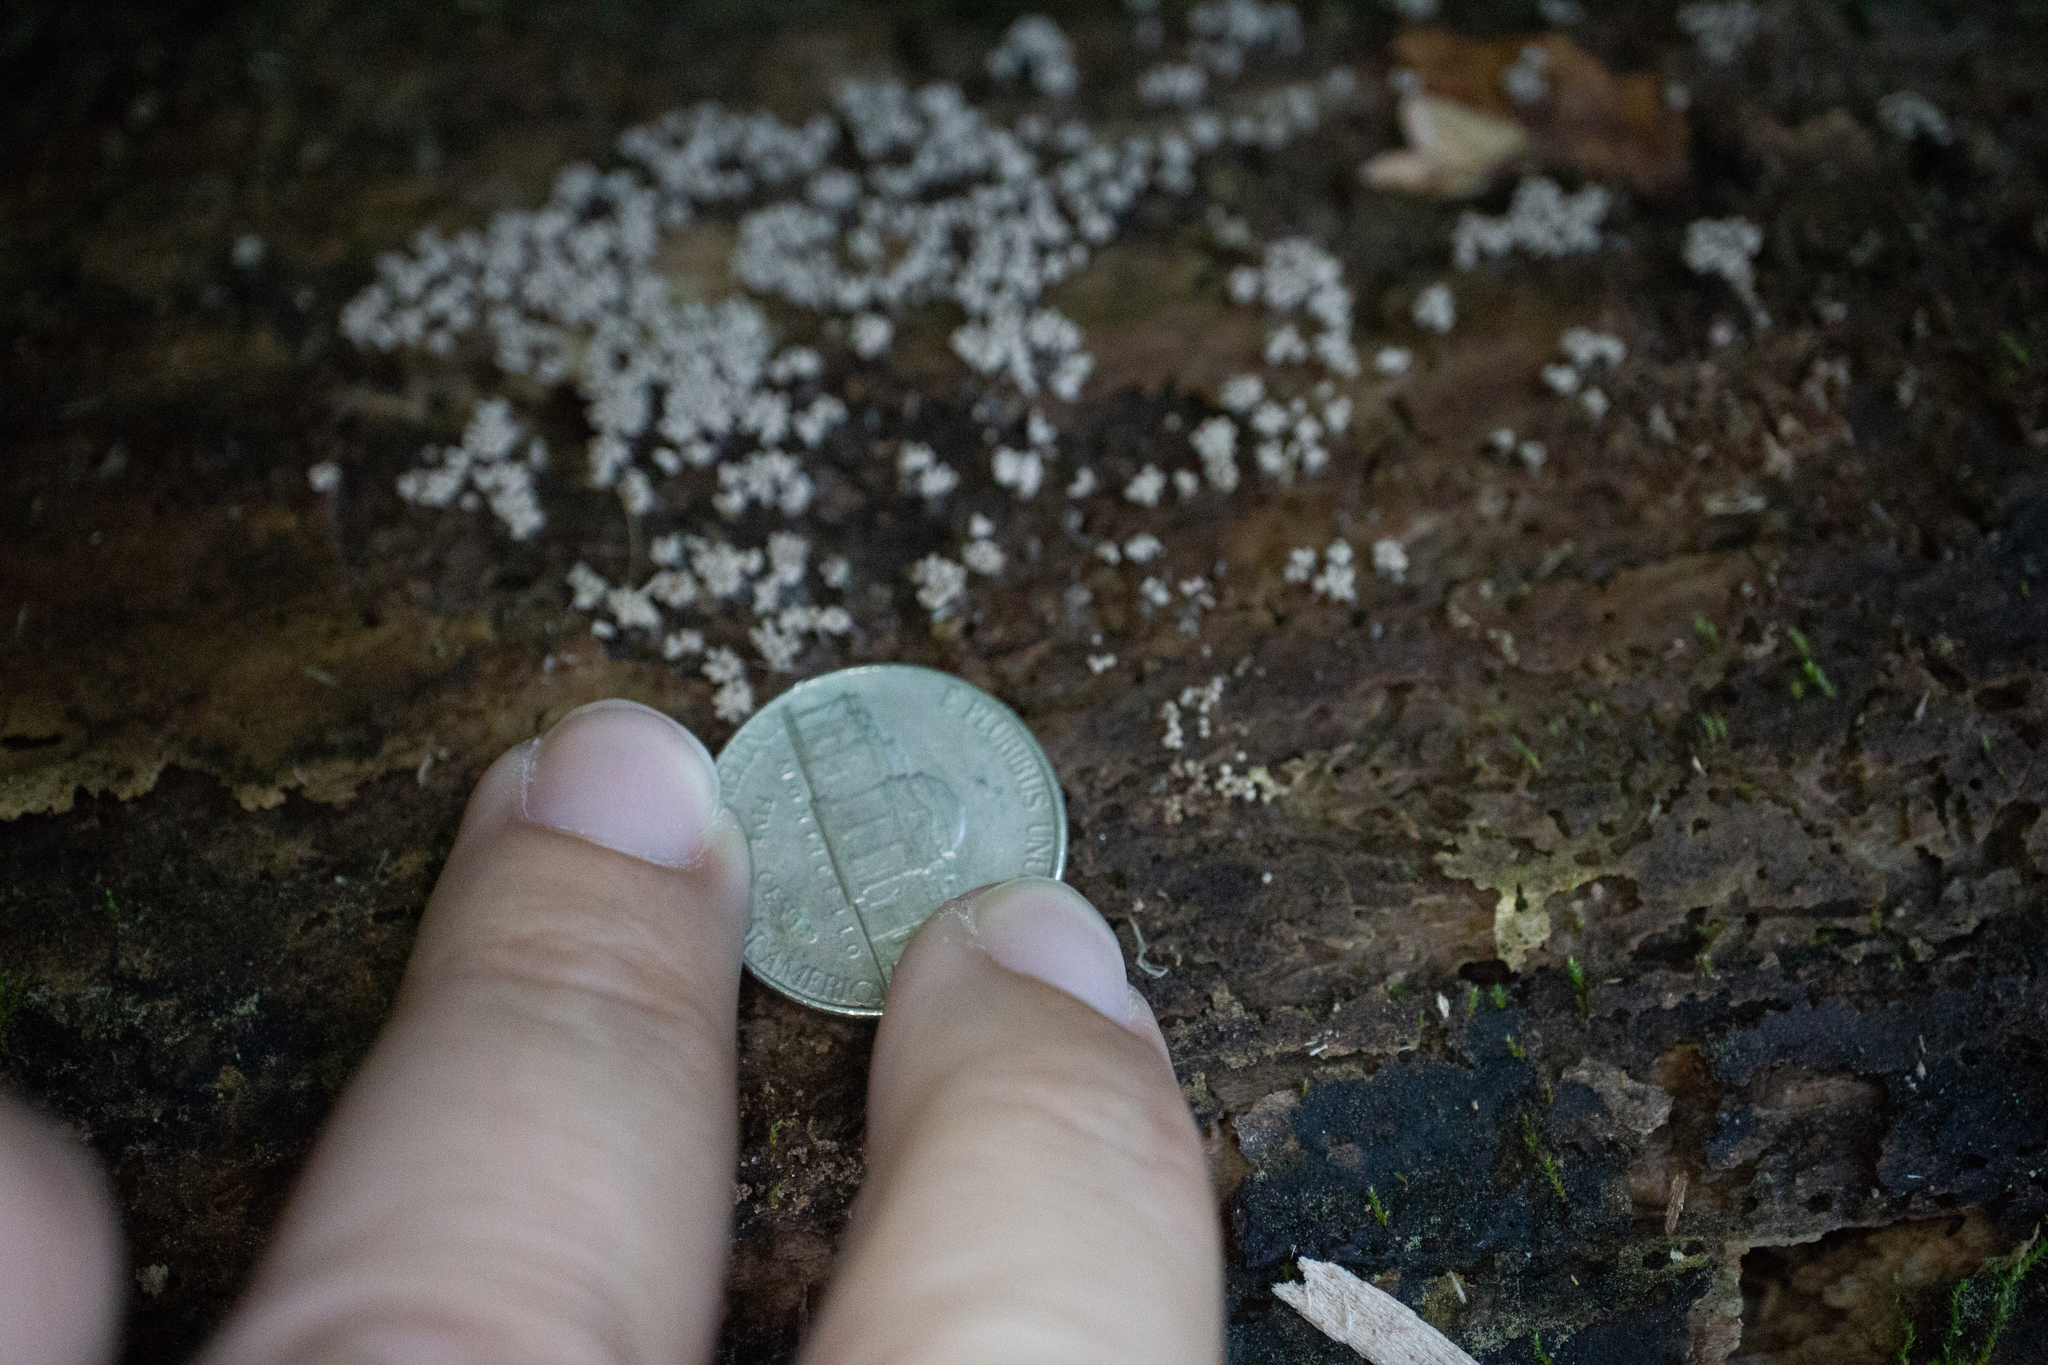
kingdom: Protozoa
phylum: Mycetozoa
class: Myxomycetes
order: Trichiales
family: Arcyriaceae
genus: Arcyria
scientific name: Arcyria cinerea
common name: White carnival candy slime mold
